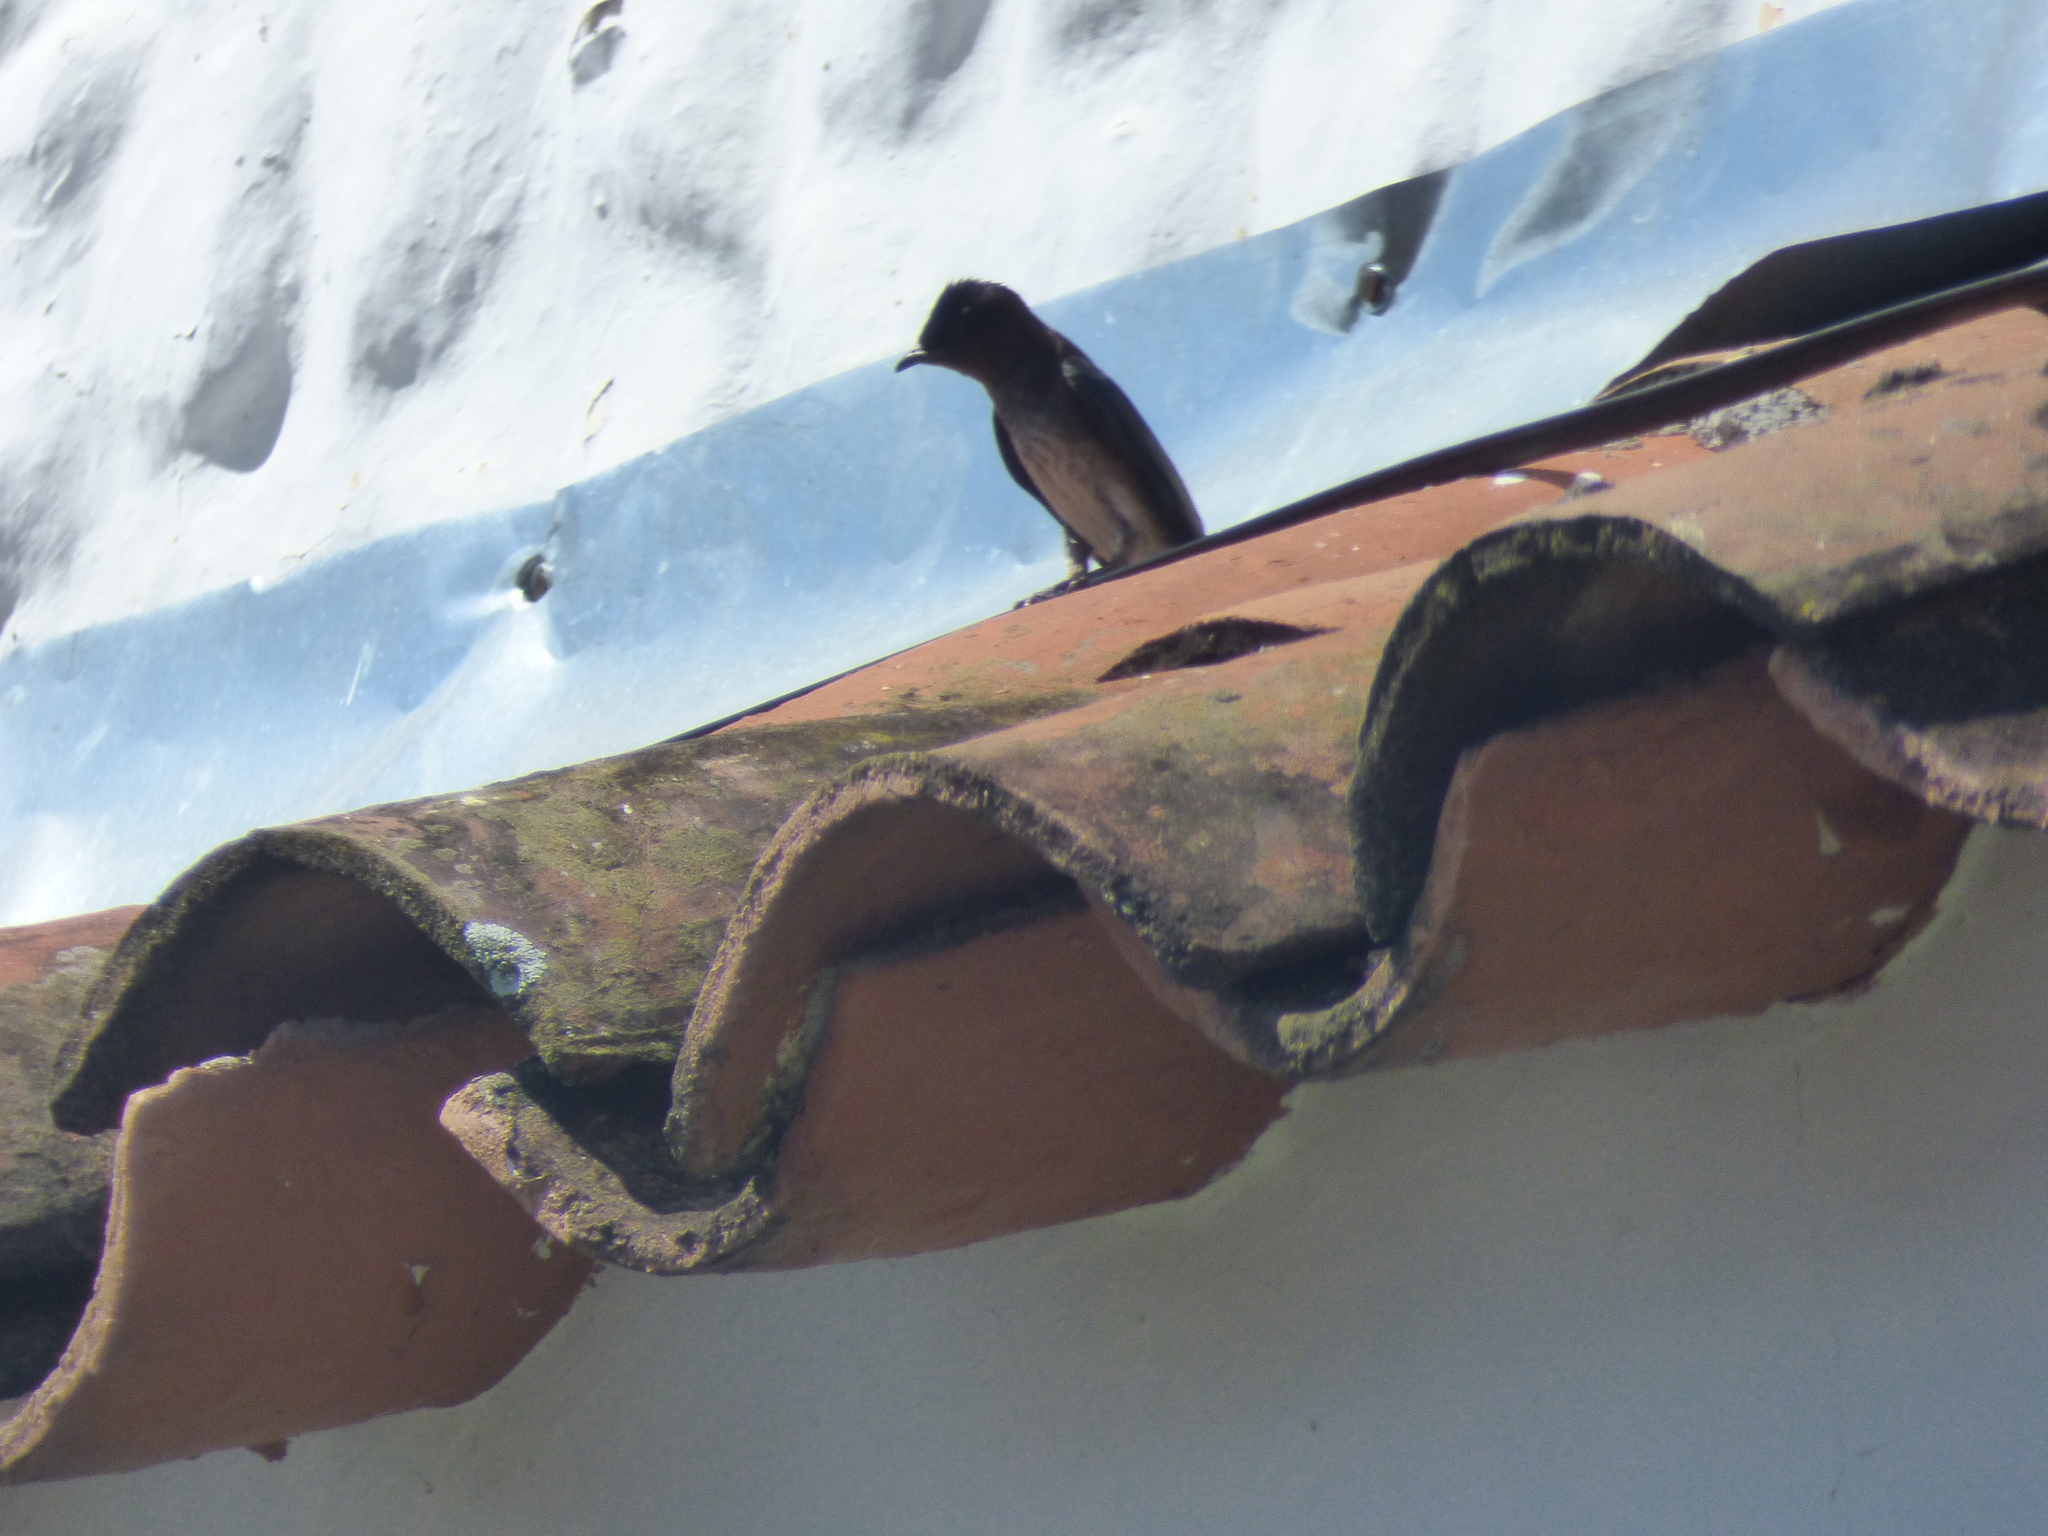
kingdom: Animalia
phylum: Chordata
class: Aves
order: Passeriformes
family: Hirundinidae
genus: Progne
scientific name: Progne chalybea
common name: Grey-breasted martin
